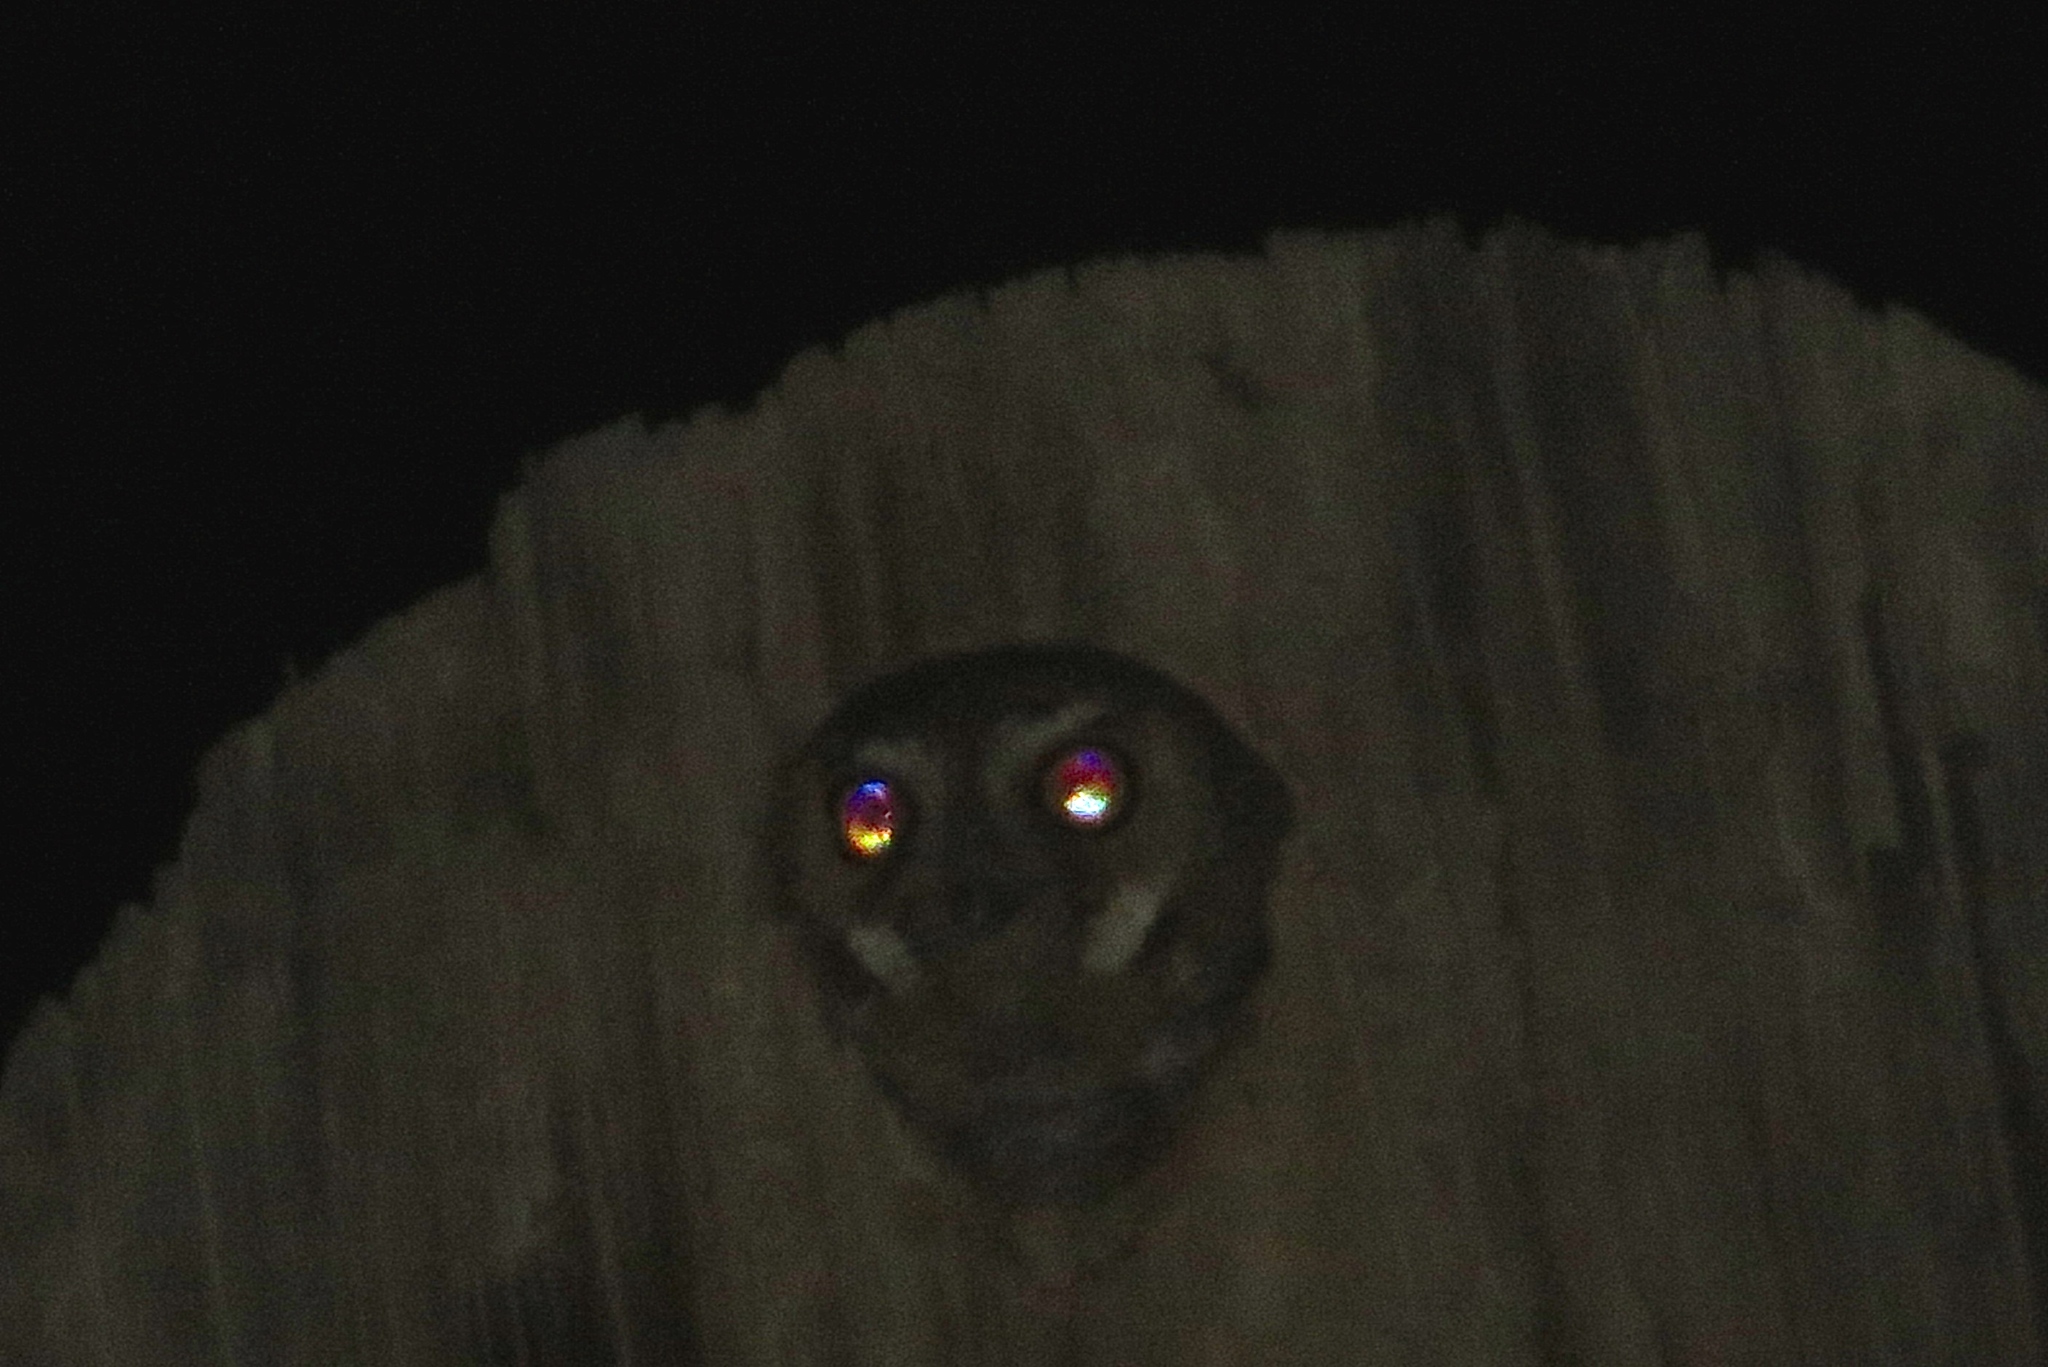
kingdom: Animalia
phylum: Chordata
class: Aves
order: Strigiformes
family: Strigidae
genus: Micrathene
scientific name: Micrathene whitneyi
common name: Elf owl
